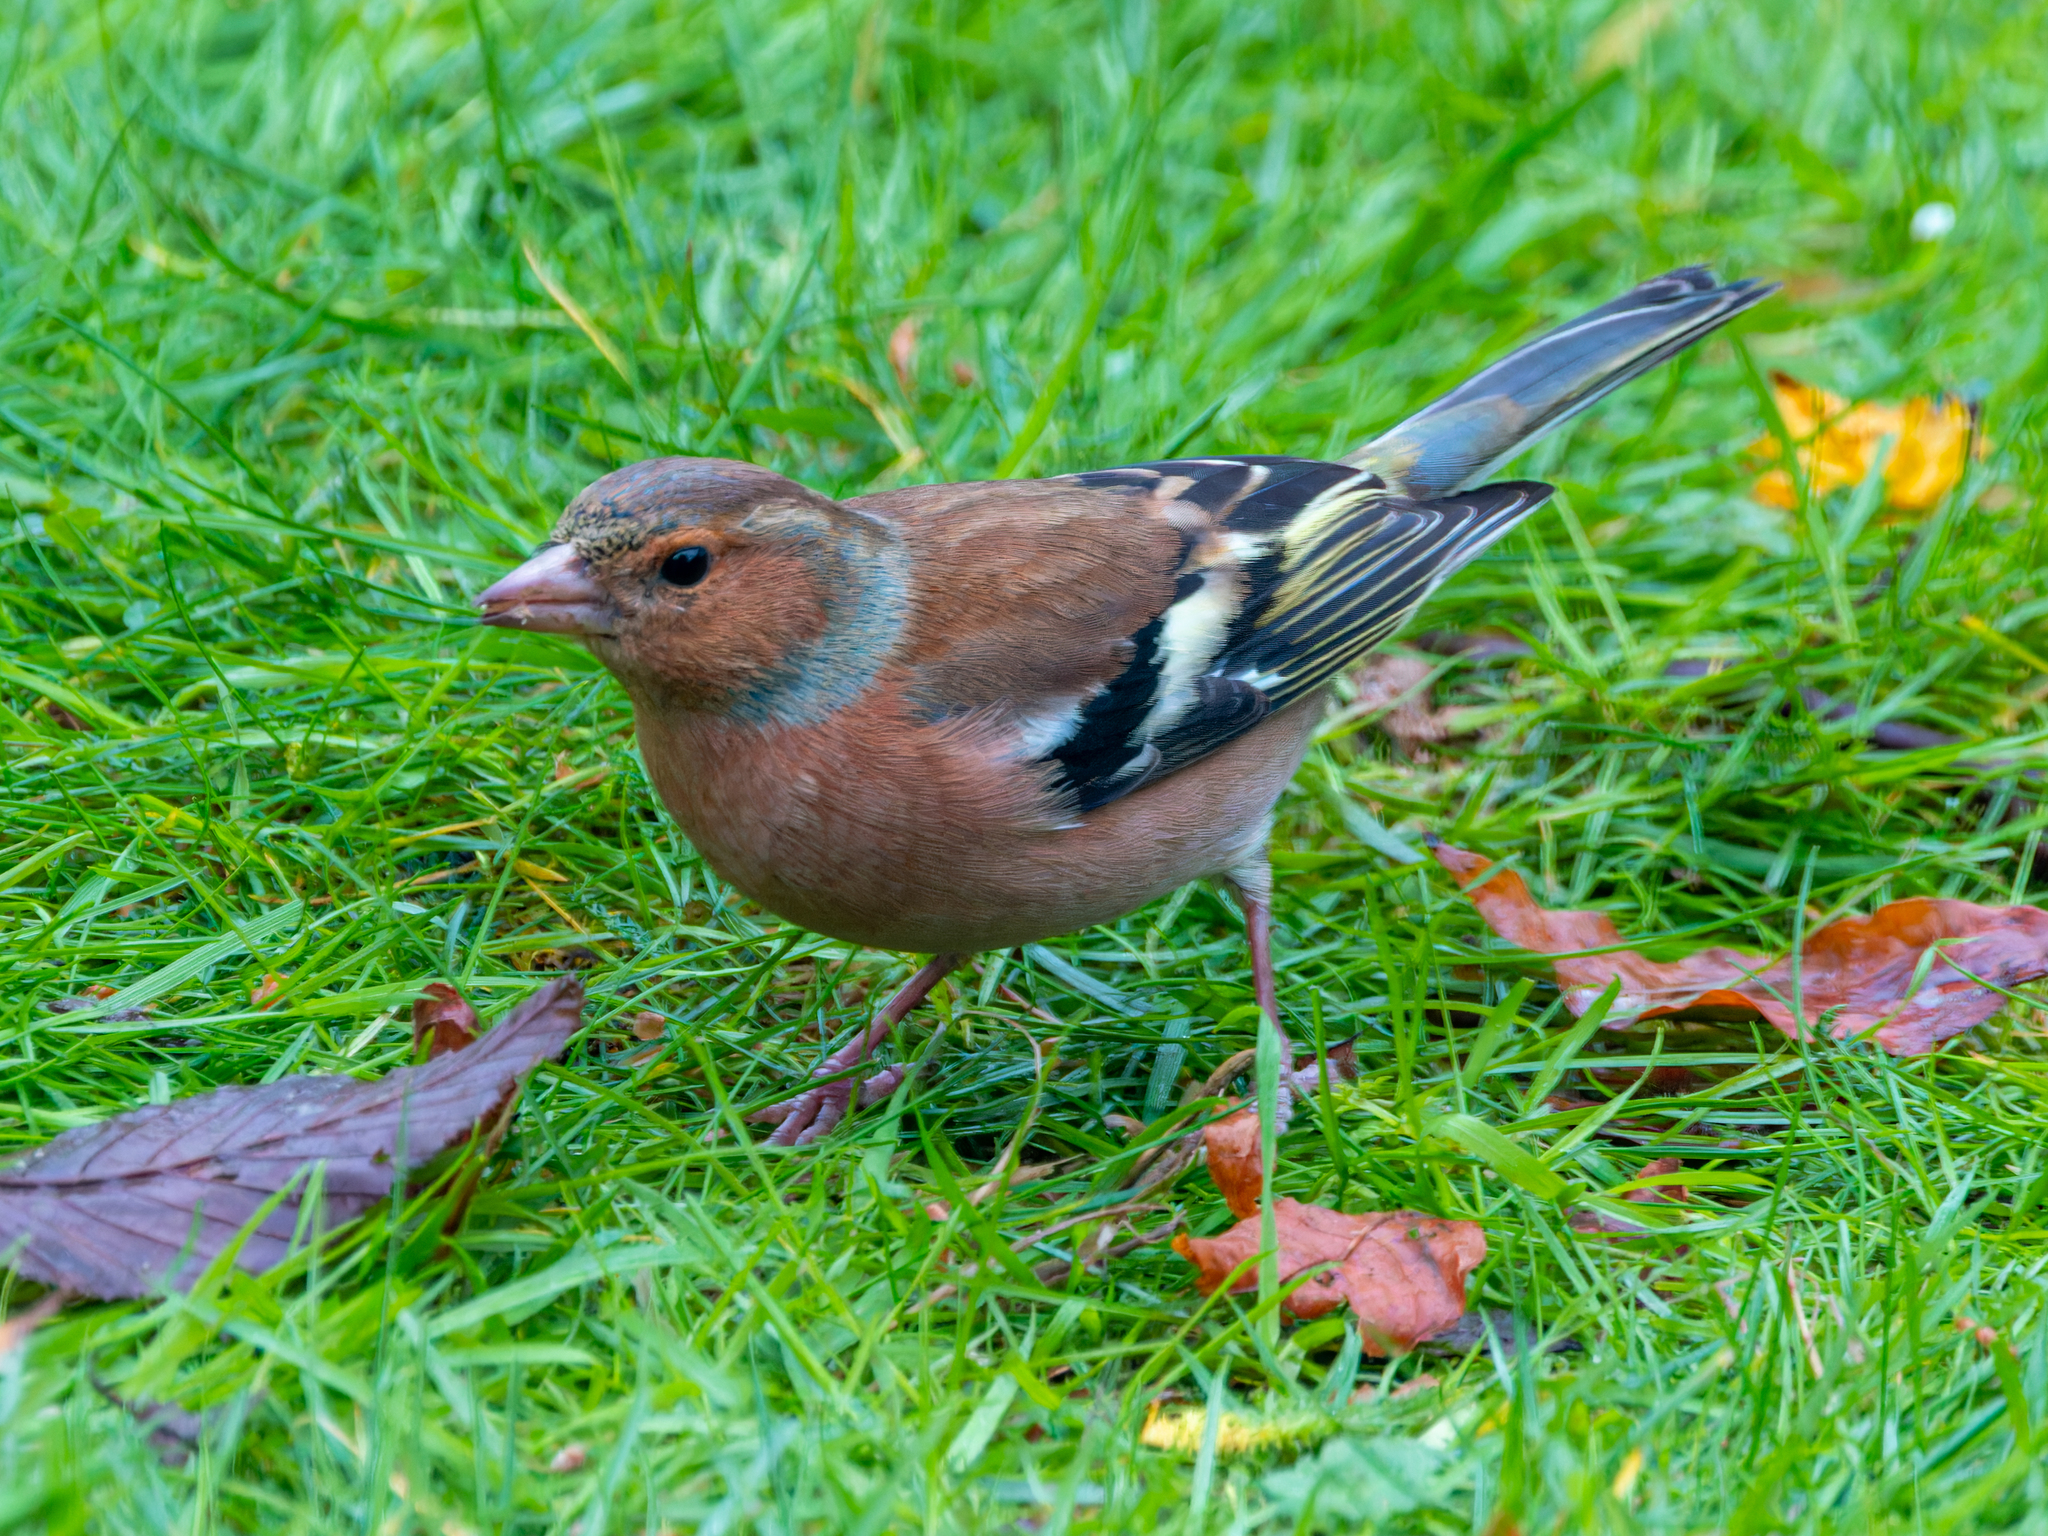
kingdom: Animalia
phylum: Chordata
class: Aves
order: Passeriformes
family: Fringillidae
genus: Fringilla
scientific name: Fringilla coelebs
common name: Common chaffinch
